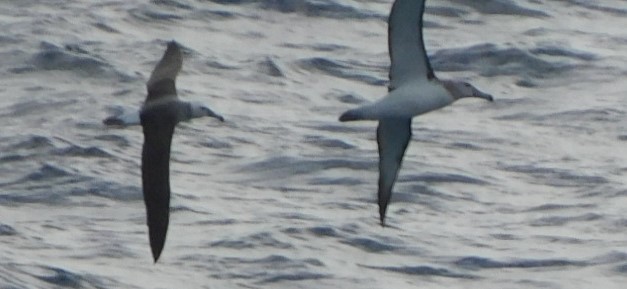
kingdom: Animalia
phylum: Chordata
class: Aves
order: Procellariiformes
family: Diomedeidae
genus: Thalassarche
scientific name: Thalassarche cauta
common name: Shy albatross
